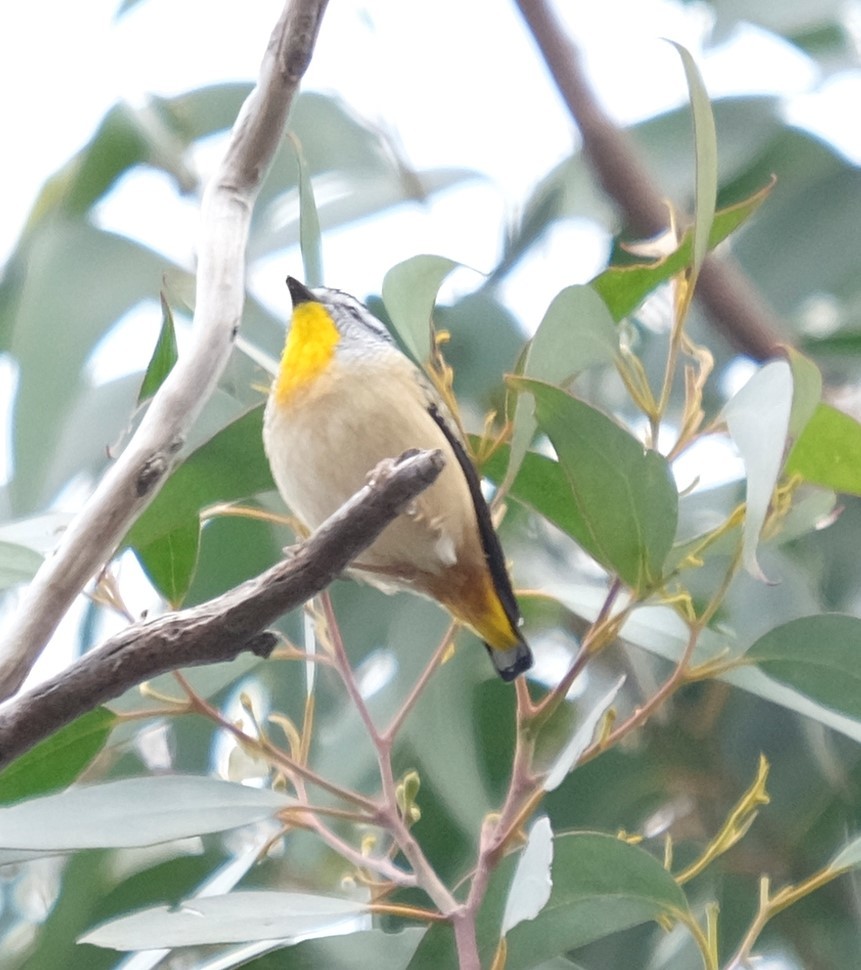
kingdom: Animalia
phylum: Chordata
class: Aves
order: Passeriformes
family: Pardalotidae
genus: Pardalotus
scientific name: Pardalotus punctatus
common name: Spotted pardalote
